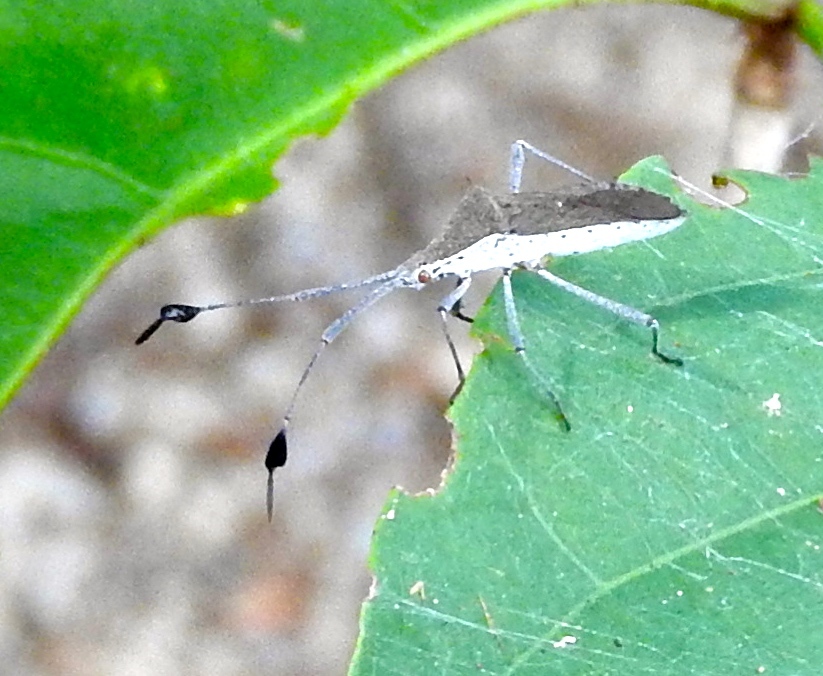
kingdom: Animalia
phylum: Arthropoda
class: Insecta
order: Hemiptera
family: Coreidae
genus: Chariesterus
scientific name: Chariesterus
